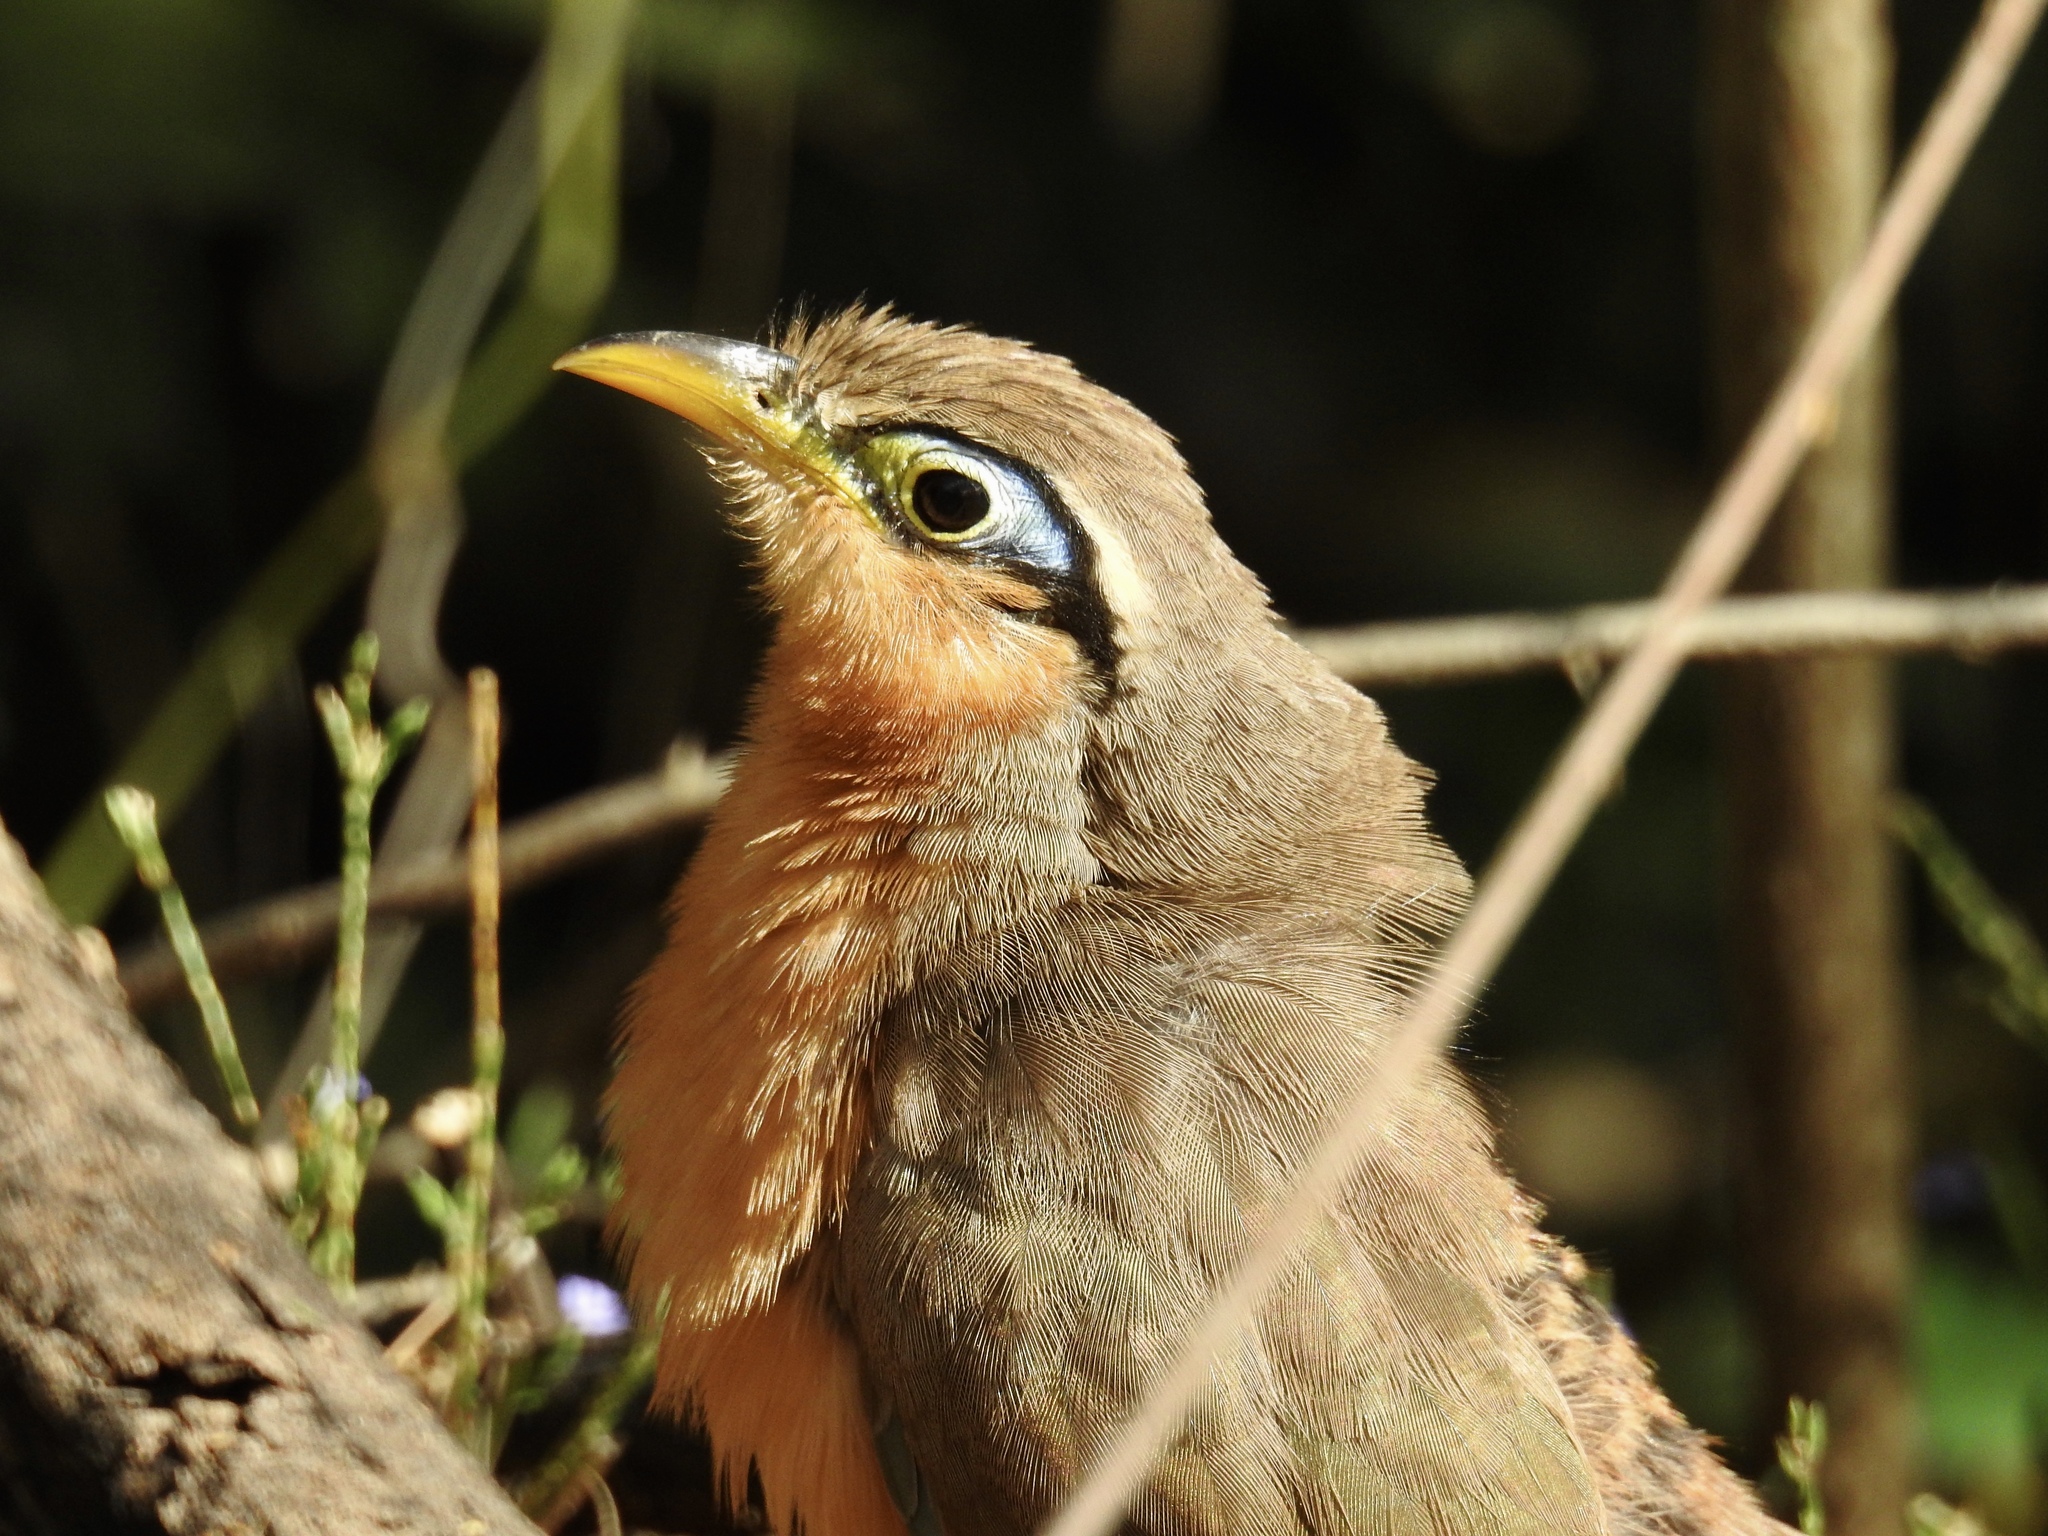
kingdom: Animalia
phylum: Chordata
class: Aves
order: Cuculiformes
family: Cuculidae
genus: Morococcyx
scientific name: Morococcyx erythropygus
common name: Lesser ground-cuckoo
